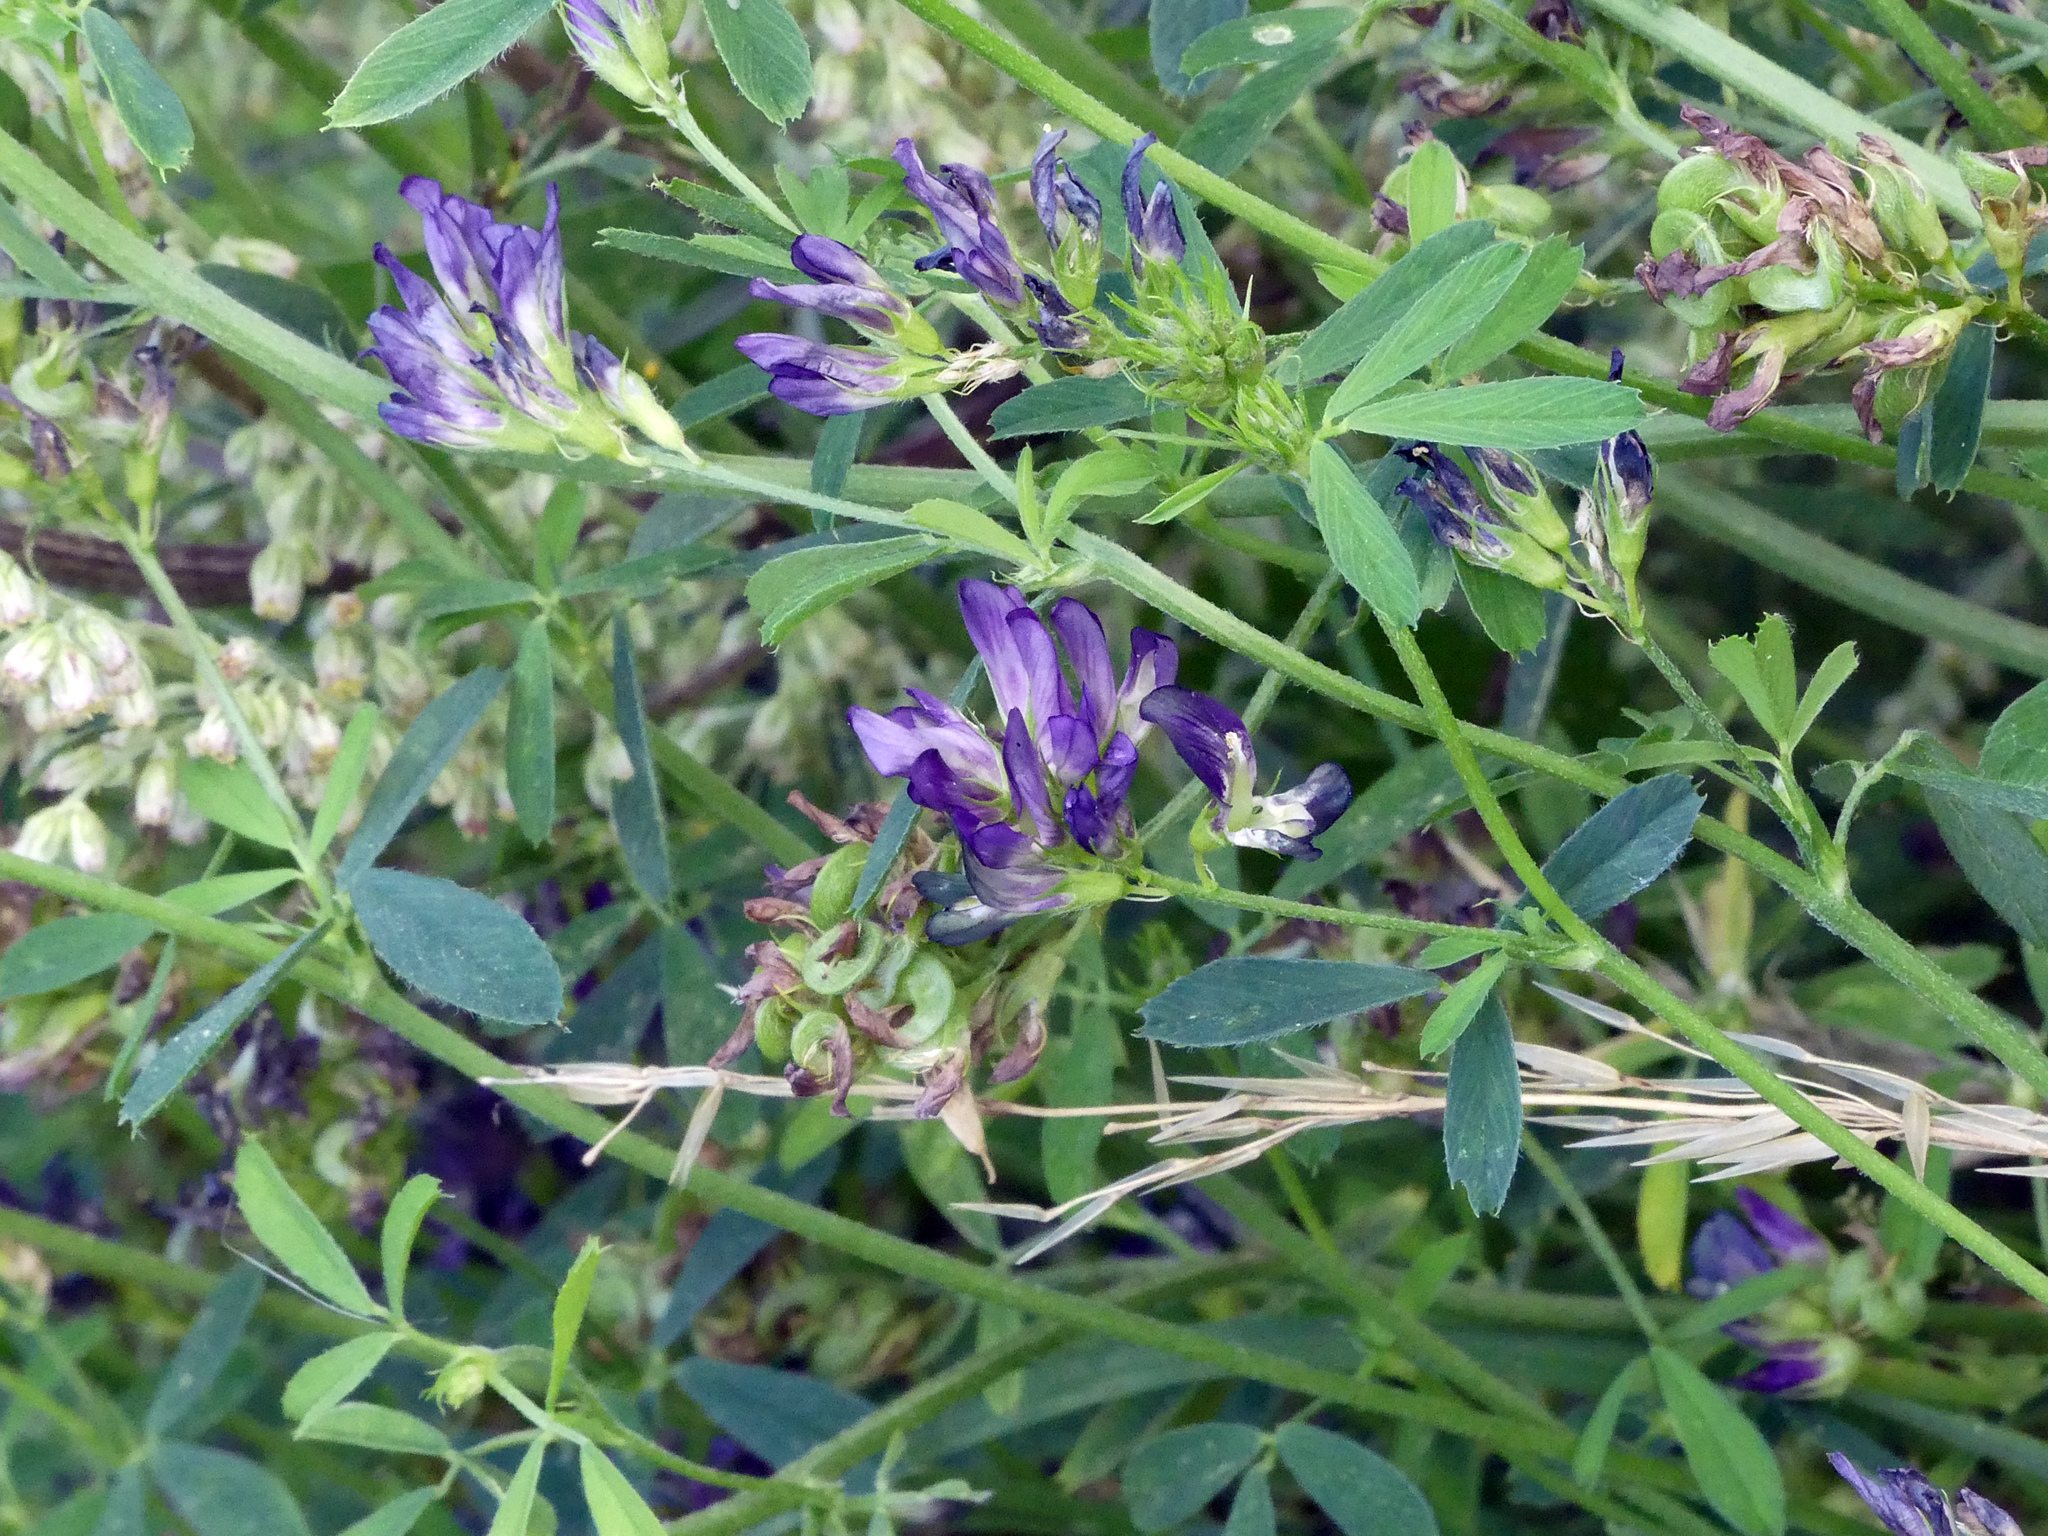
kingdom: Plantae
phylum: Tracheophyta
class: Magnoliopsida
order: Fabales
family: Fabaceae
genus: Medicago
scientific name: Medicago sativa
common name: Alfalfa
